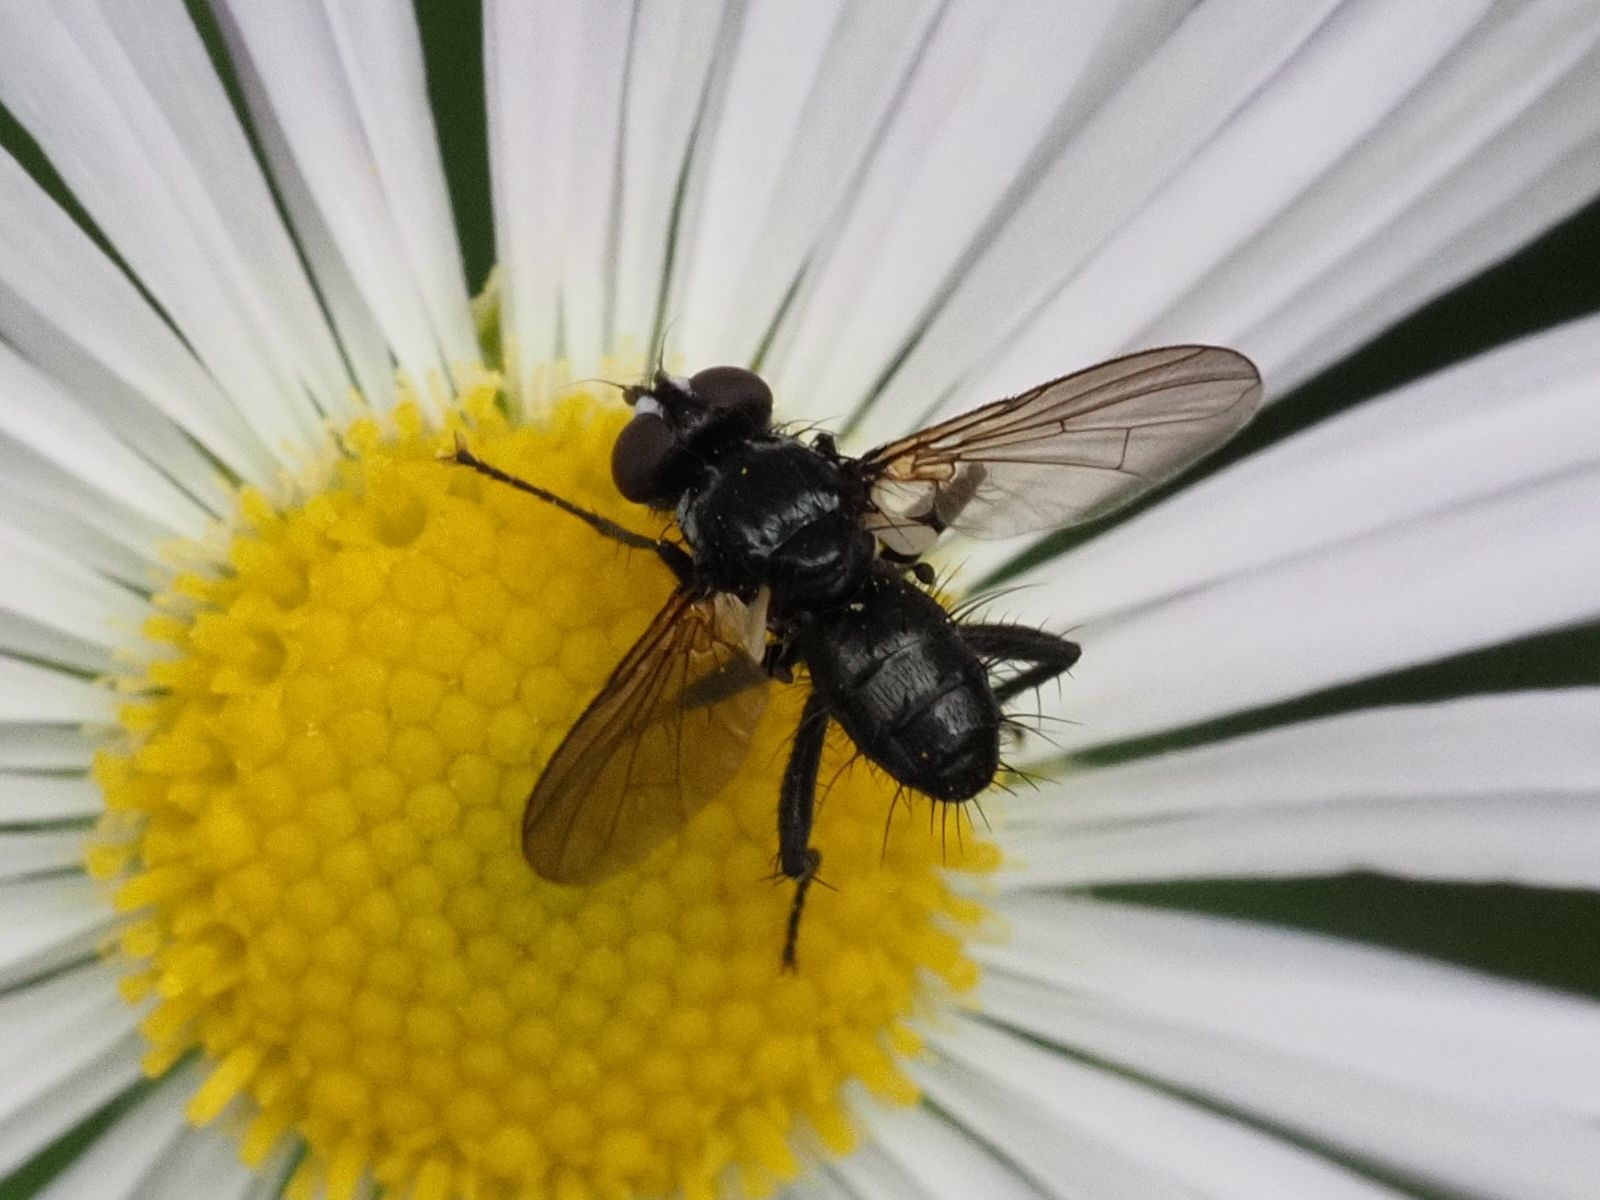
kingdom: Animalia
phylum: Arthropoda
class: Insecta
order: Diptera
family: Tachinidae
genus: Phania
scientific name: Phania funesta
